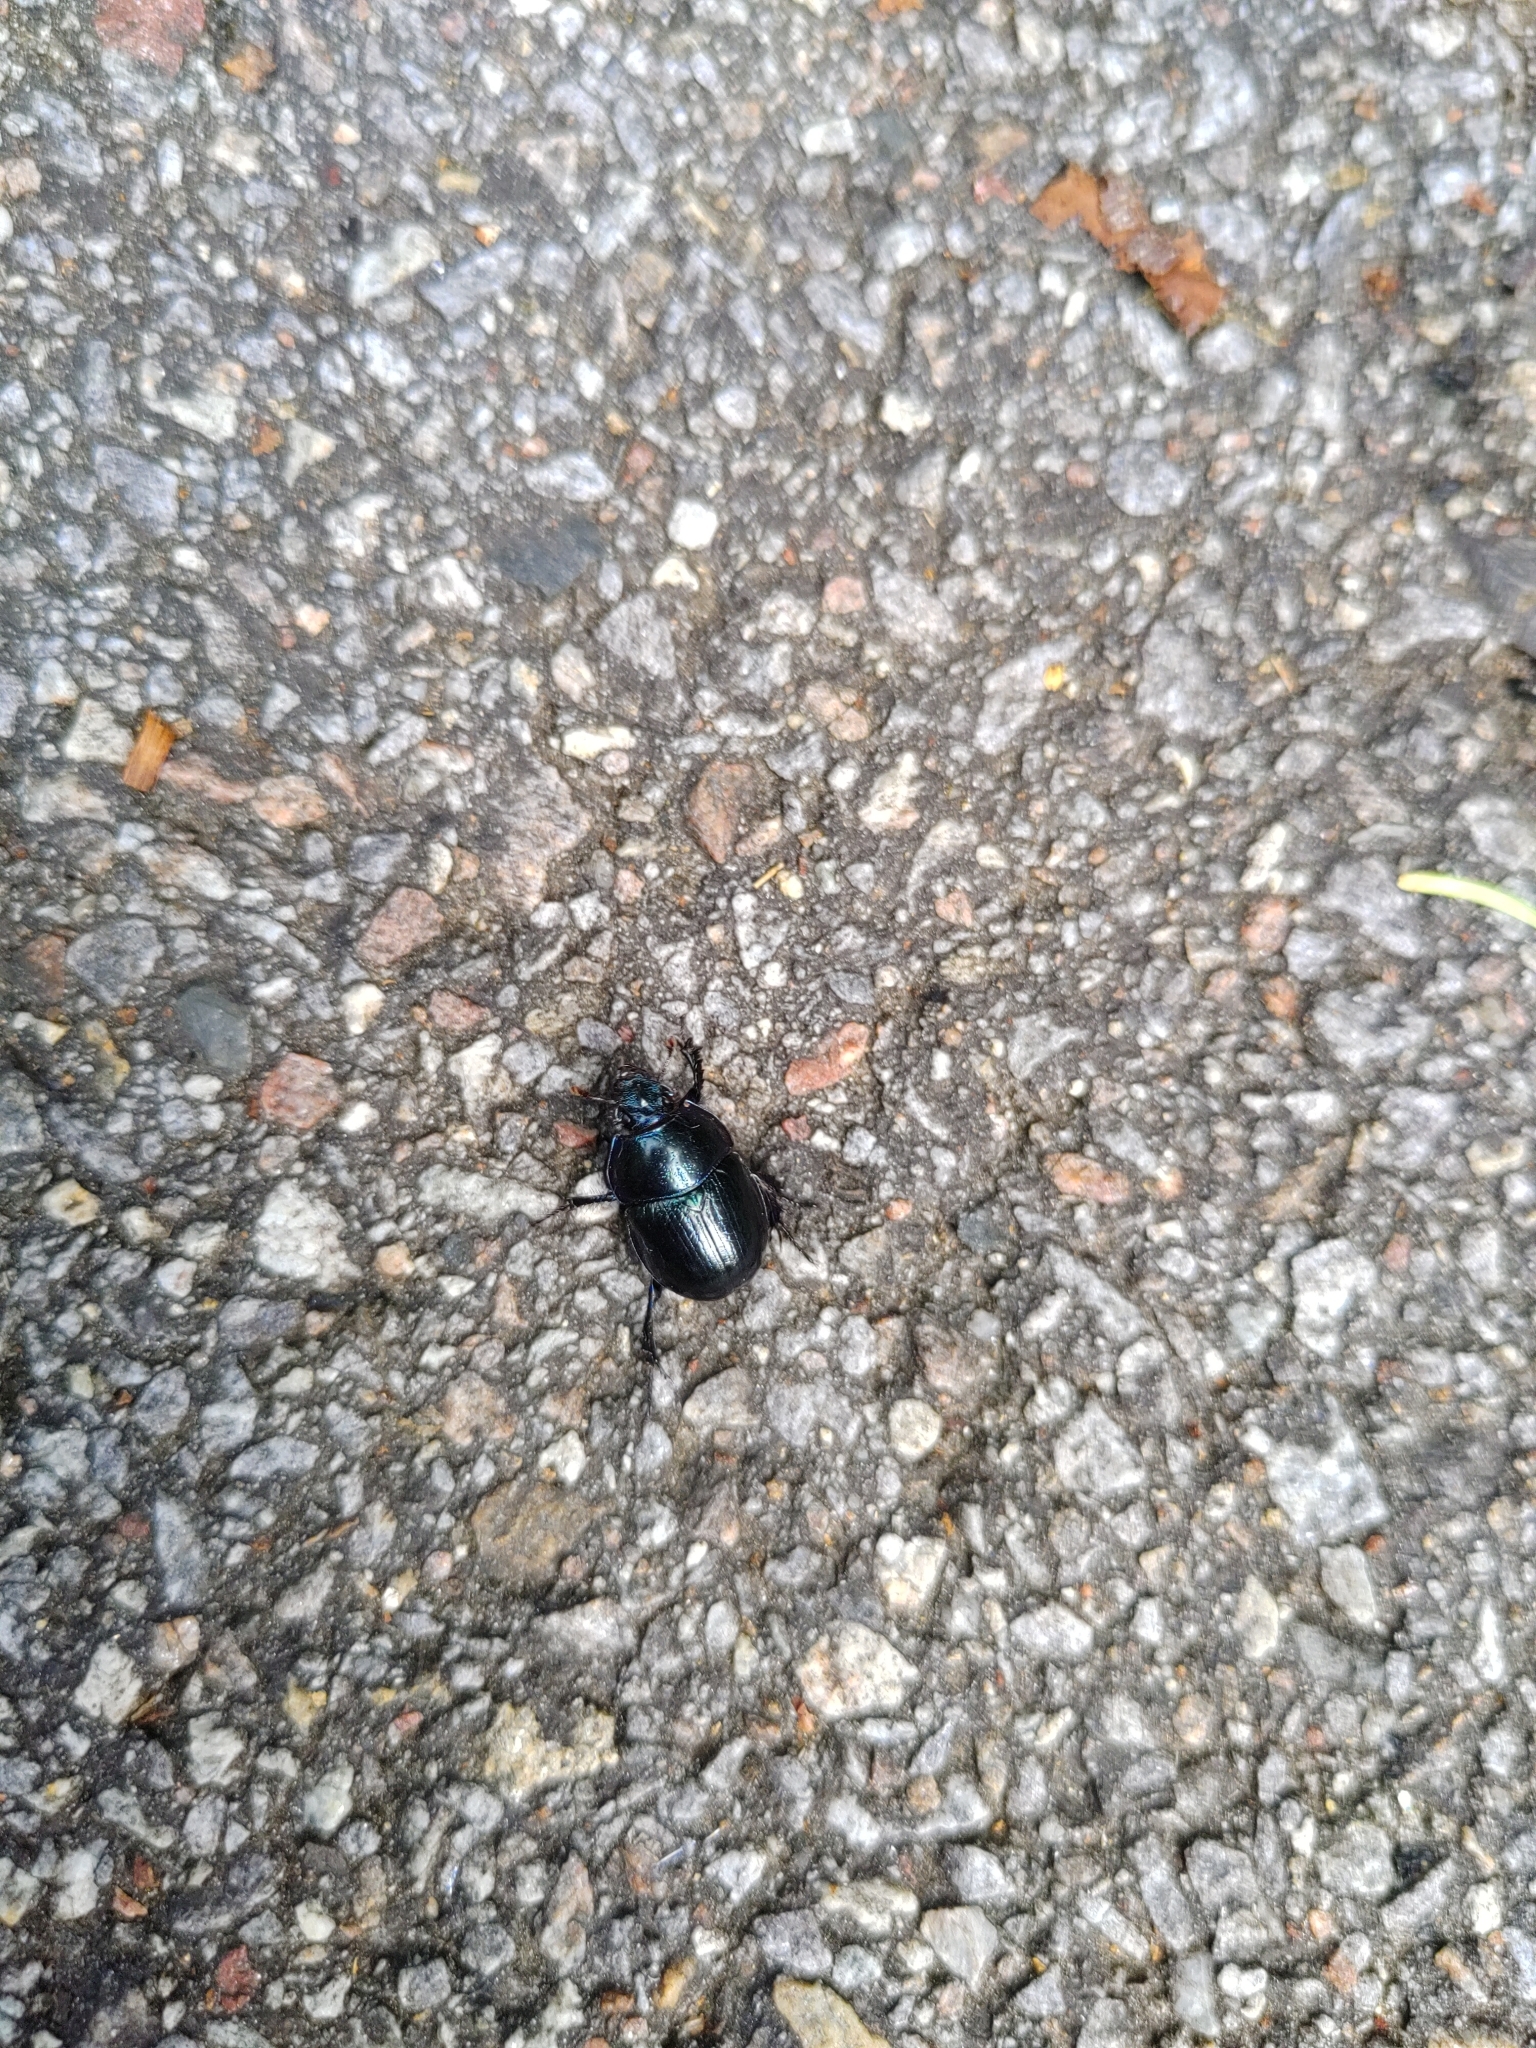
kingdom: Animalia
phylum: Arthropoda
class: Insecta
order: Coleoptera
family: Geotrupidae
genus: Anoplotrupes
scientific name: Anoplotrupes stercorosus
